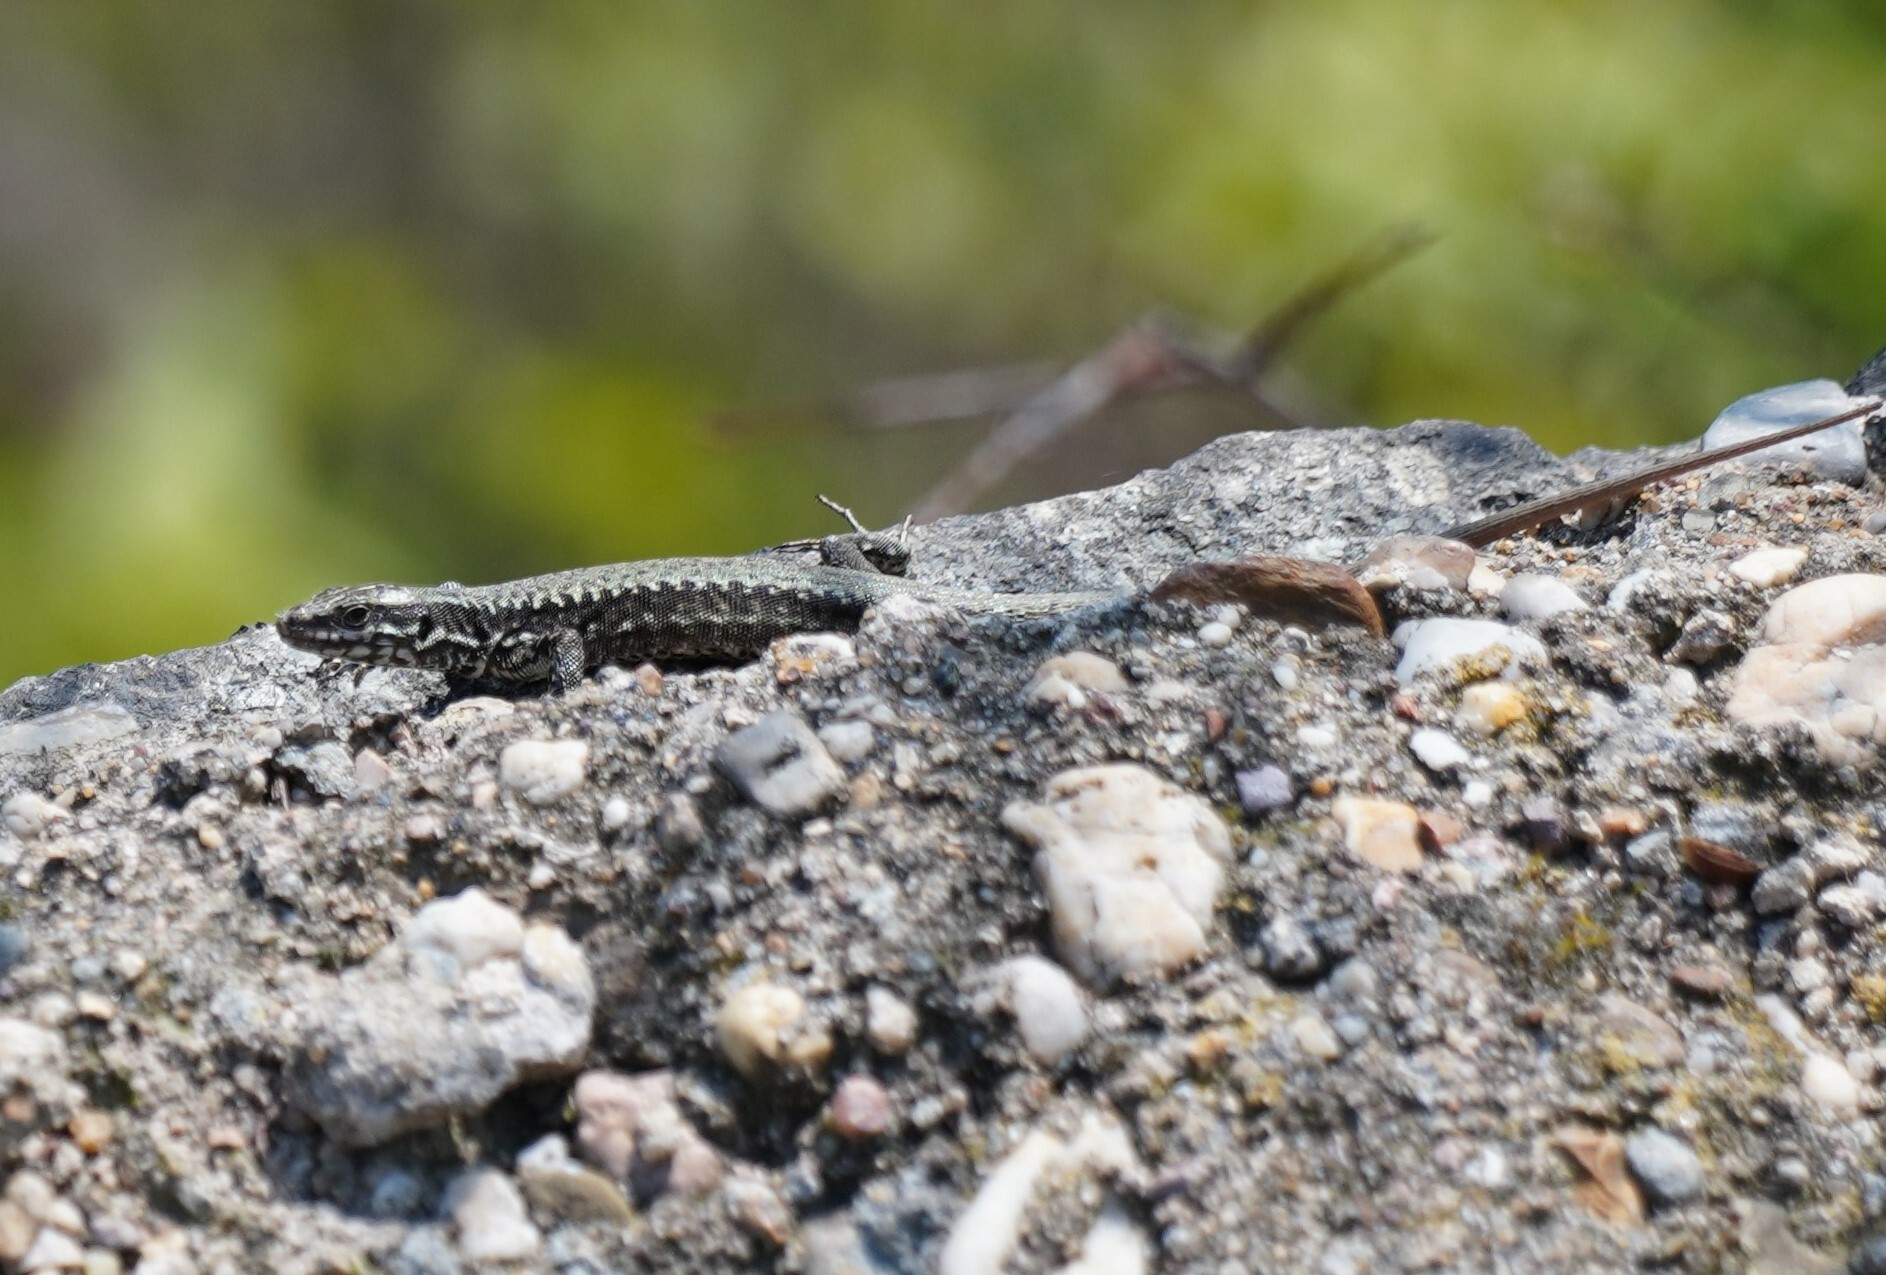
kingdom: Animalia
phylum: Chordata
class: Squamata
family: Lacertidae
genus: Podarcis
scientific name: Podarcis muralis
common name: Common wall lizard
